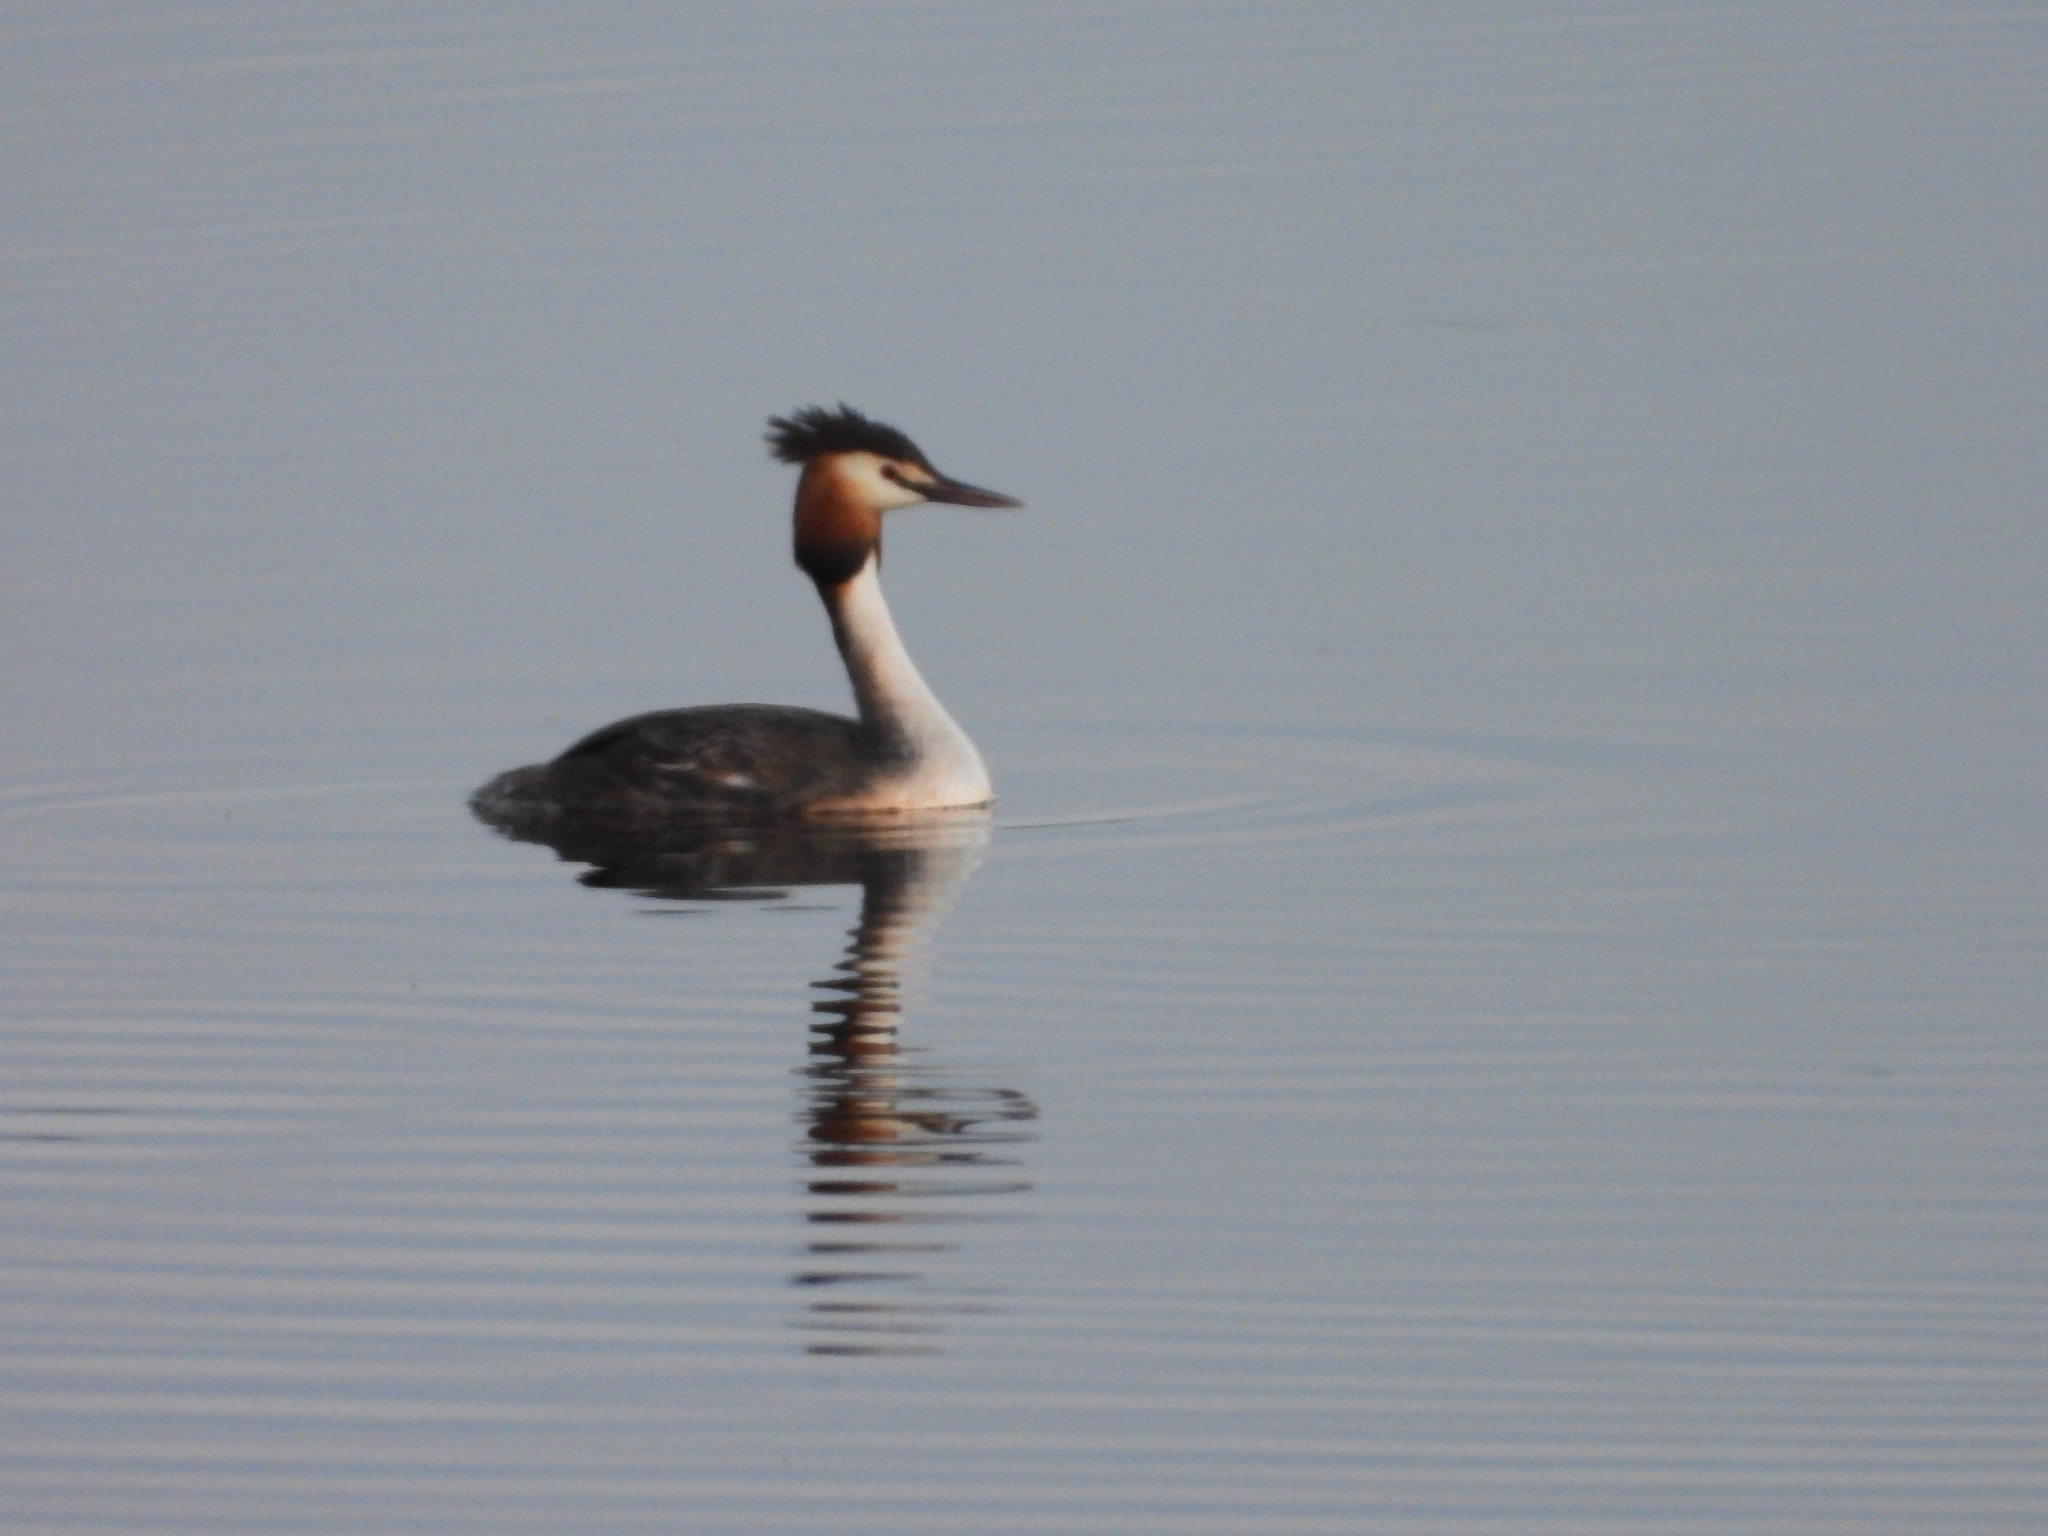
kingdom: Animalia
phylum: Chordata
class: Aves
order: Podicipediformes
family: Podicipedidae
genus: Podiceps
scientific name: Podiceps cristatus
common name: Great crested grebe
